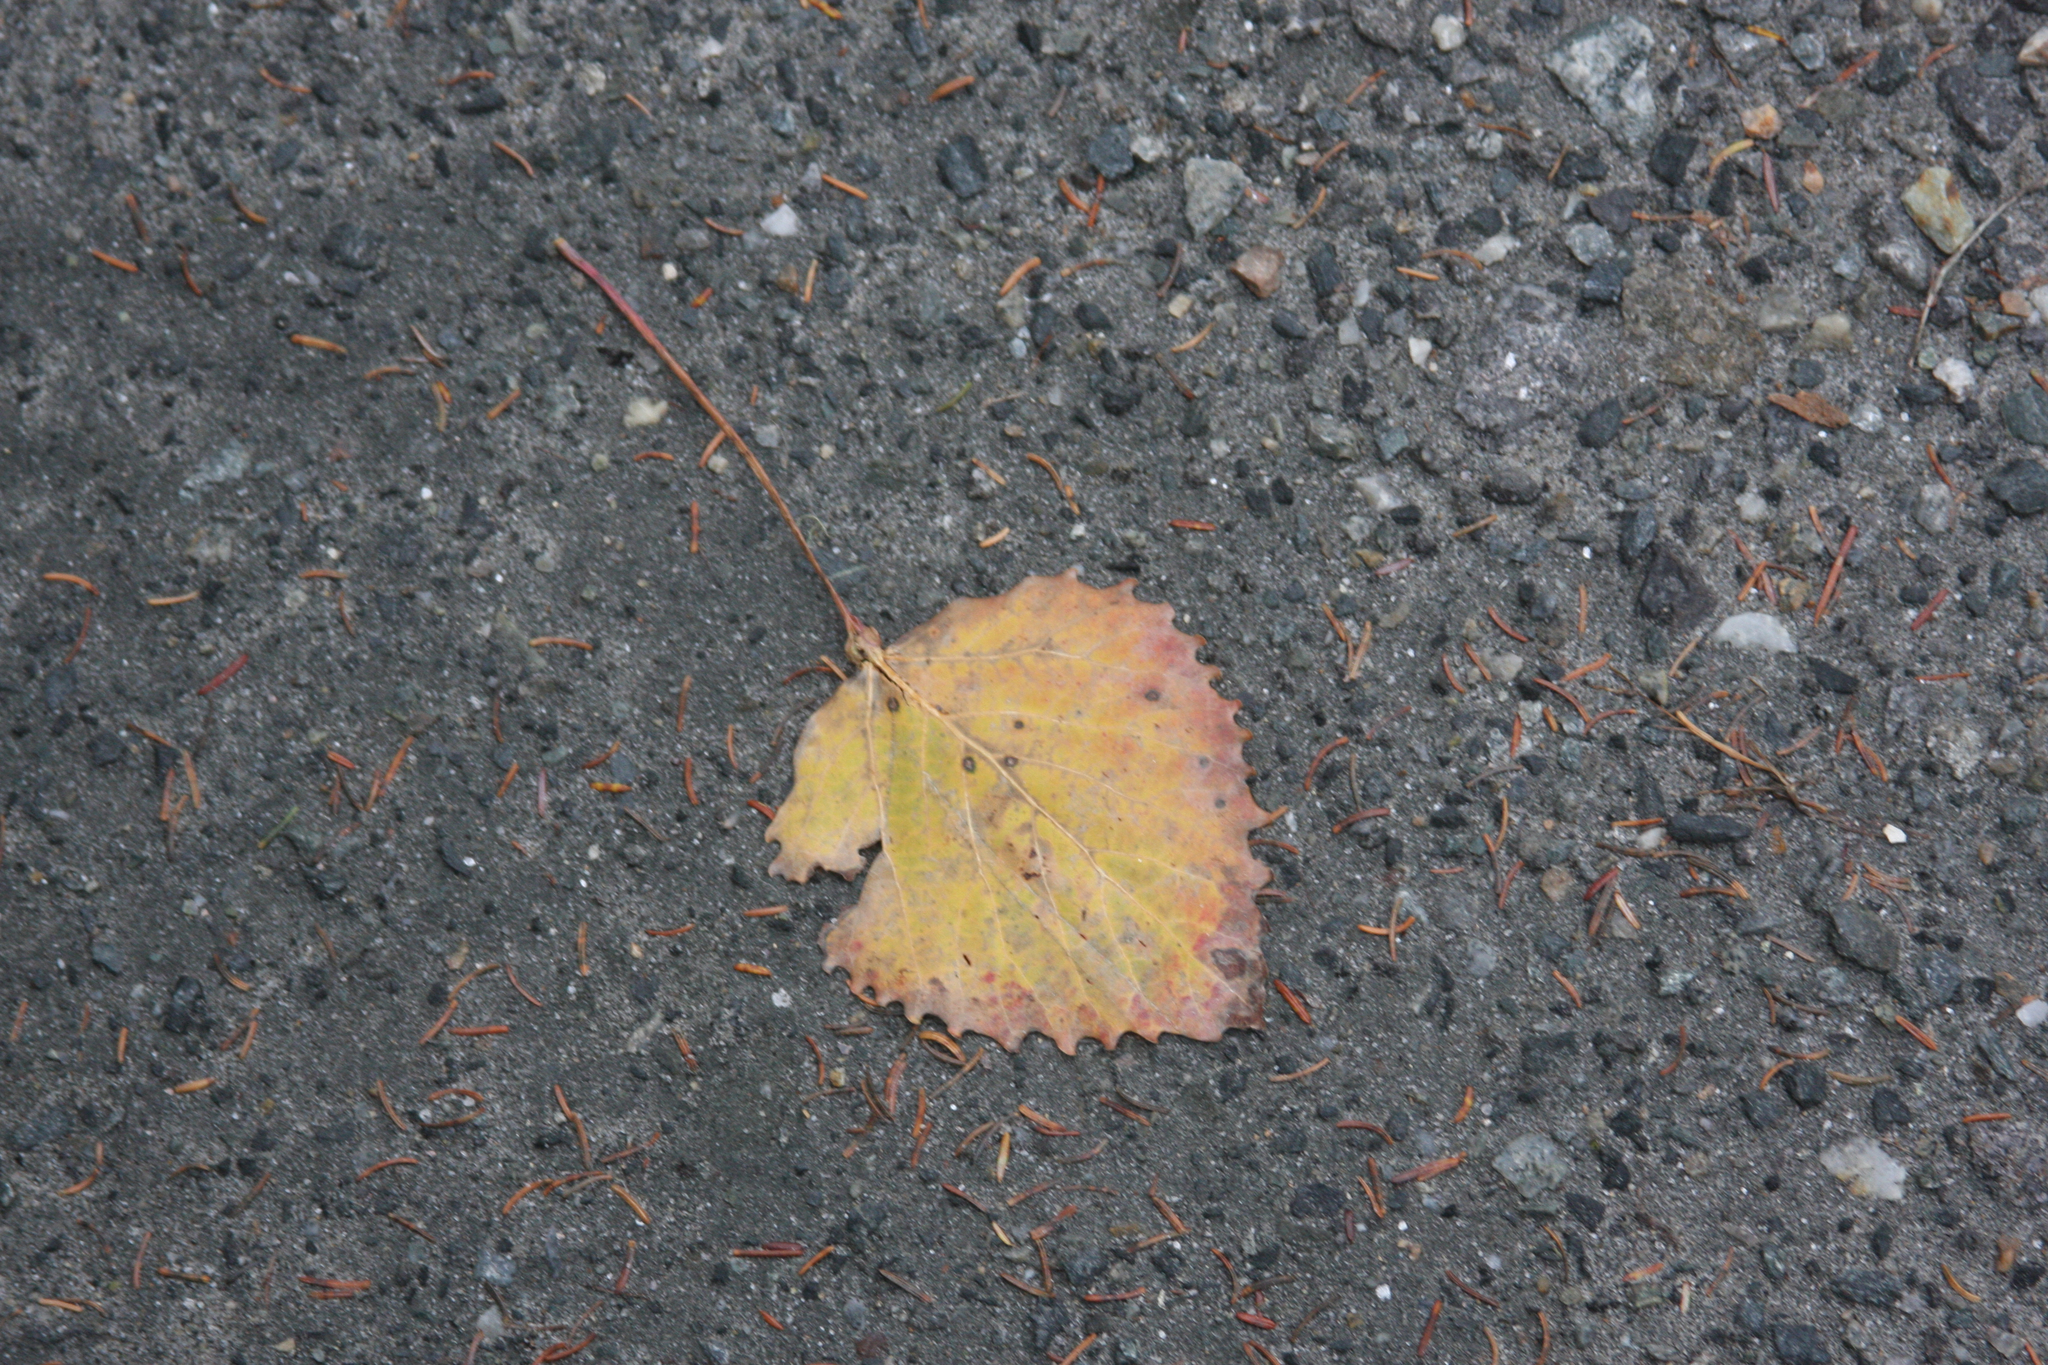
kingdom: Plantae
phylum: Tracheophyta
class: Magnoliopsida
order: Malpighiales
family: Salicaceae
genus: Populus
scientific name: Populus grandidentata
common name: Bigtooth aspen
